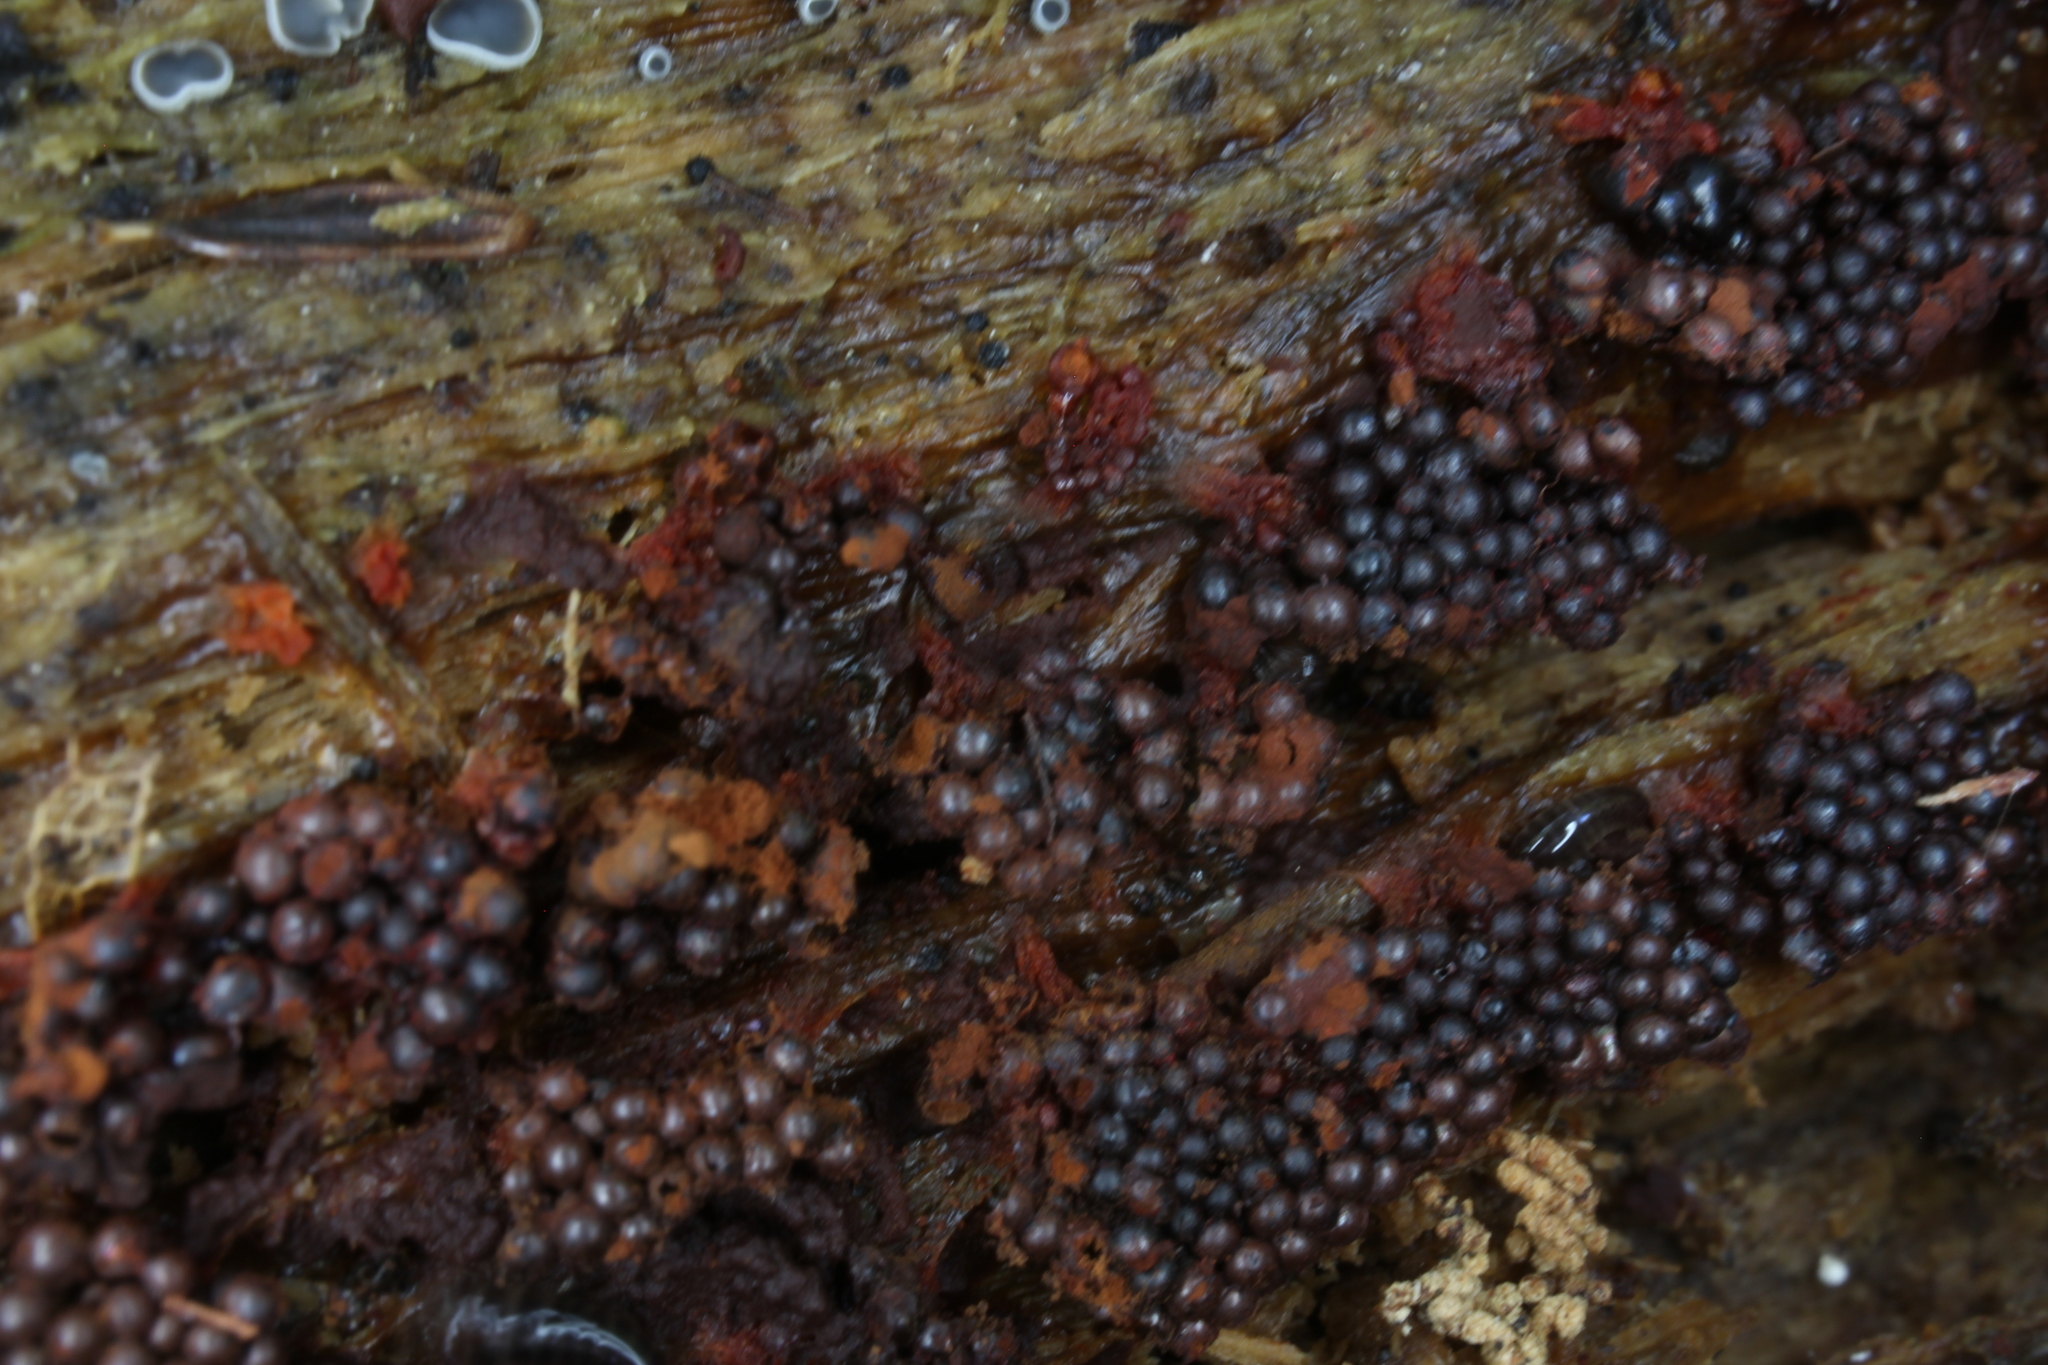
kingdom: Protozoa
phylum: Mycetozoa
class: Myxomycetes
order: Trichiales
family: Trichiaceae
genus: Metatrichia
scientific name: Metatrichia vesparia
